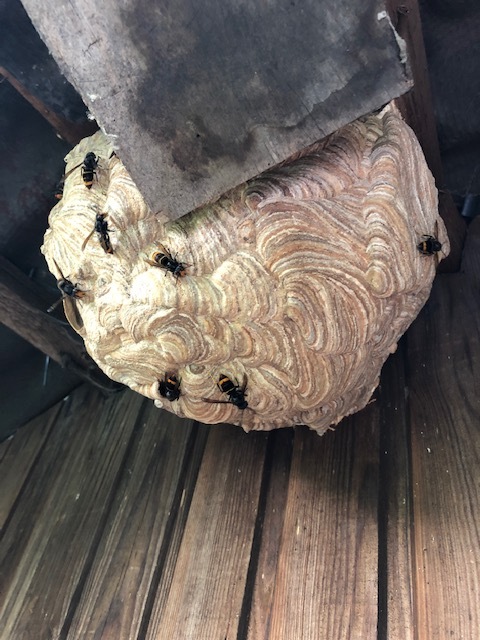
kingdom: Animalia
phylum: Arthropoda
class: Insecta
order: Hymenoptera
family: Vespidae
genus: Vespa
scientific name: Vespa velutina
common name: Asian hornet
